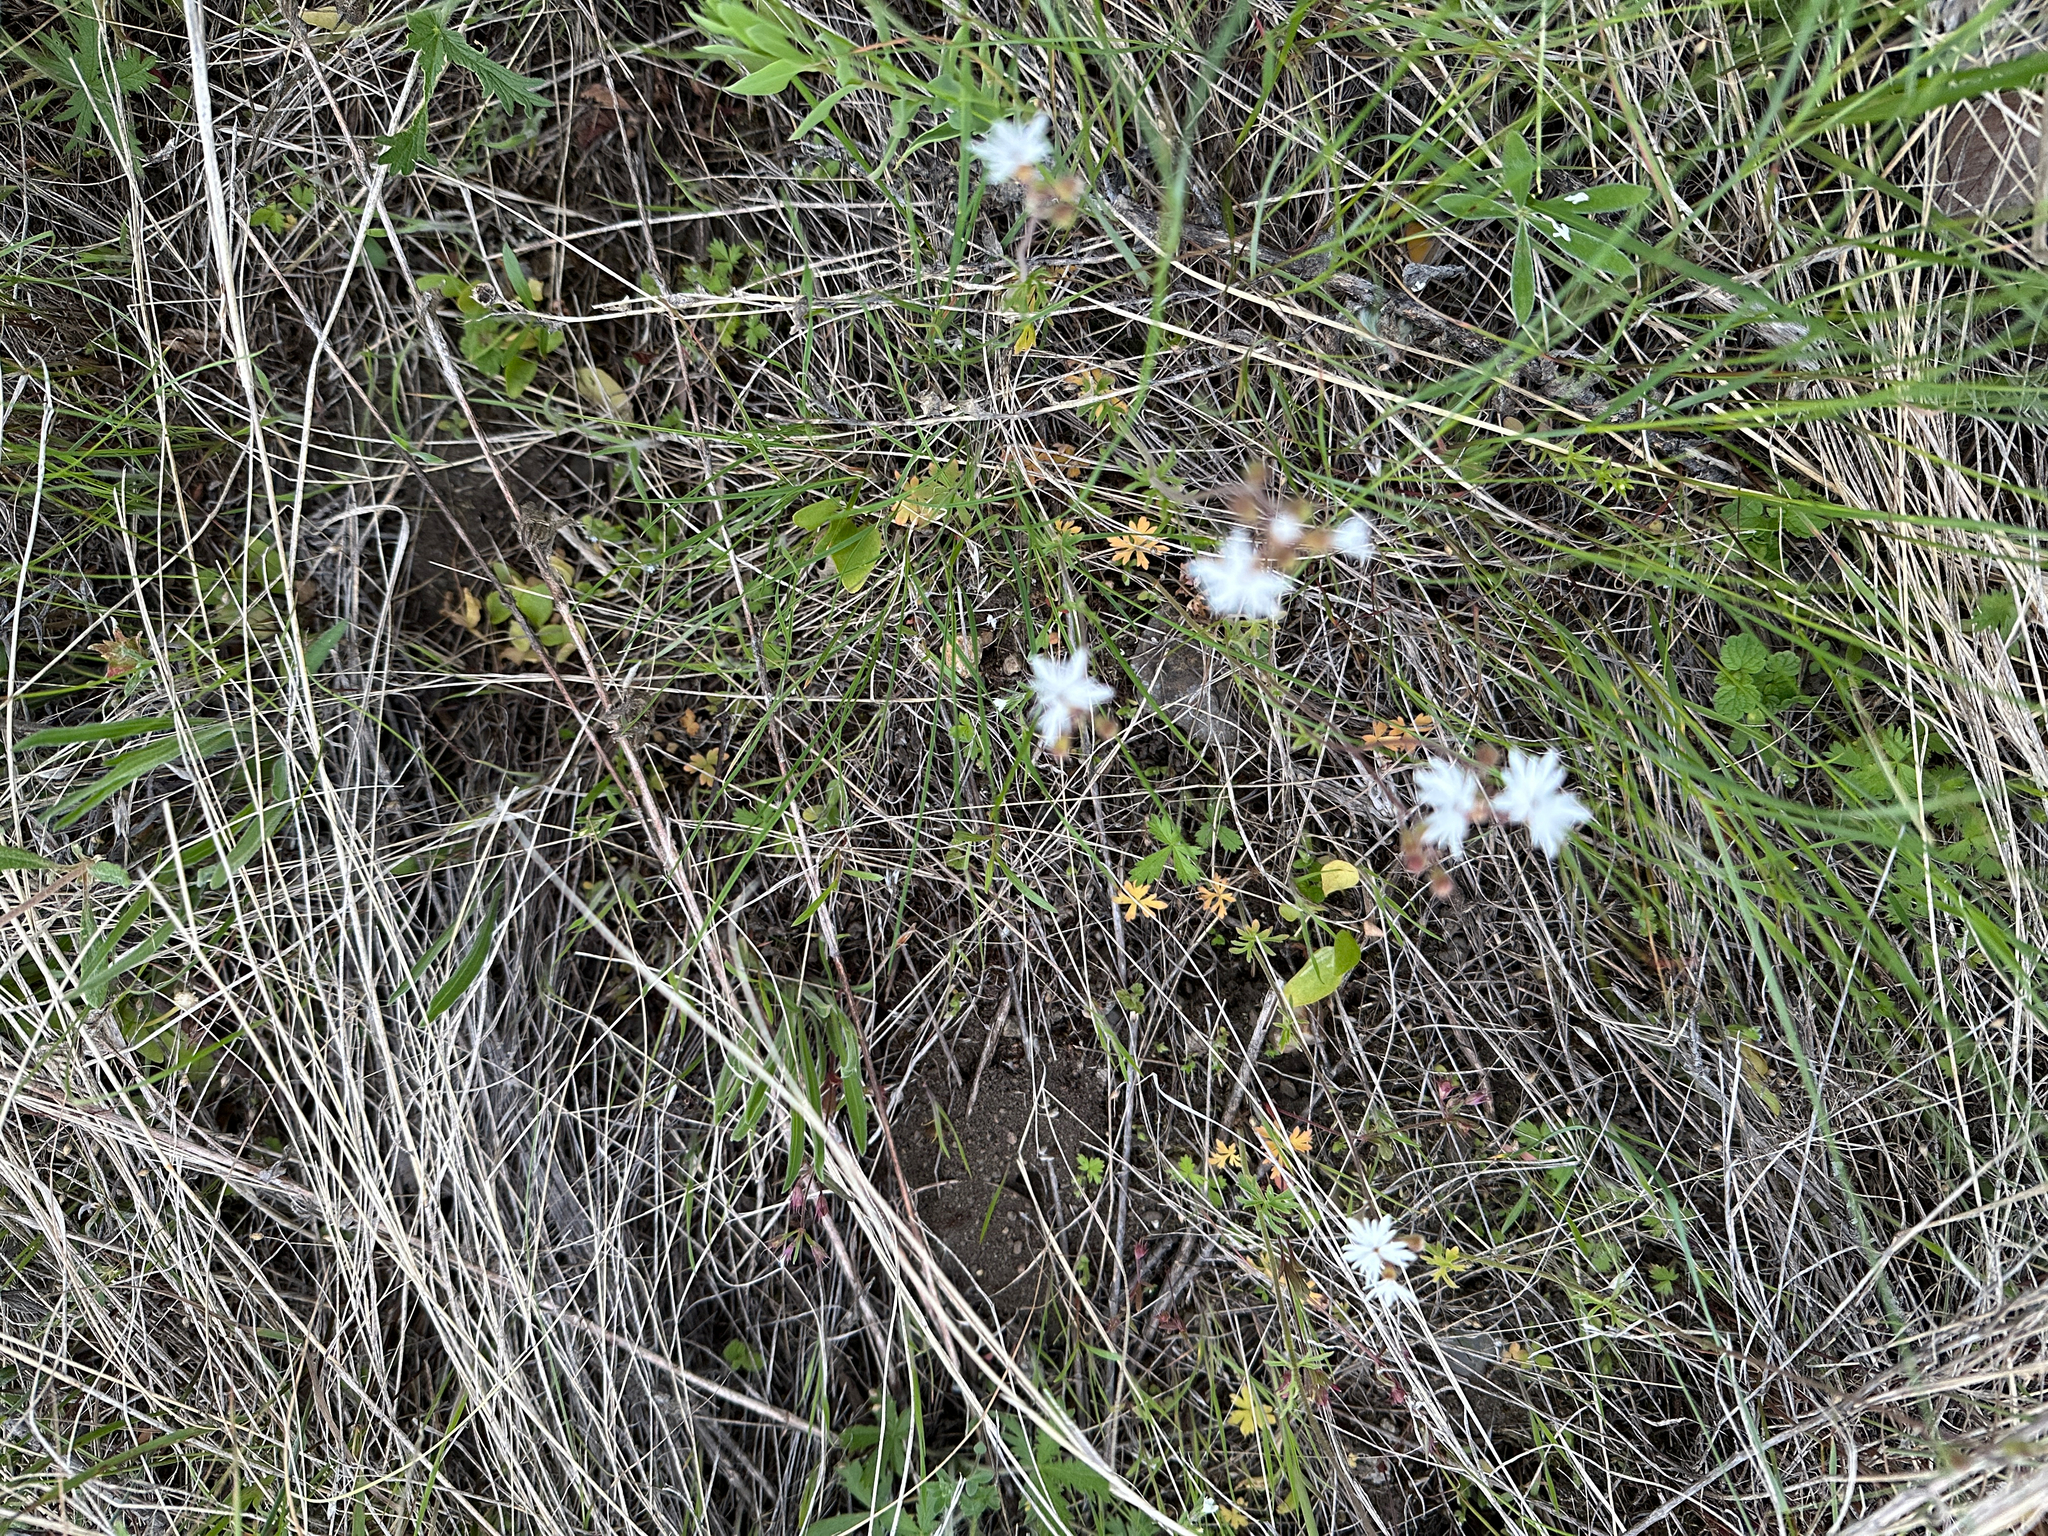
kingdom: Plantae
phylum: Tracheophyta
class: Magnoliopsida
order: Saxifragales
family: Saxifragaceae
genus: Lithophragma
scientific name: Lithophragma parviflorum
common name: Small-flowered fringe-cup
